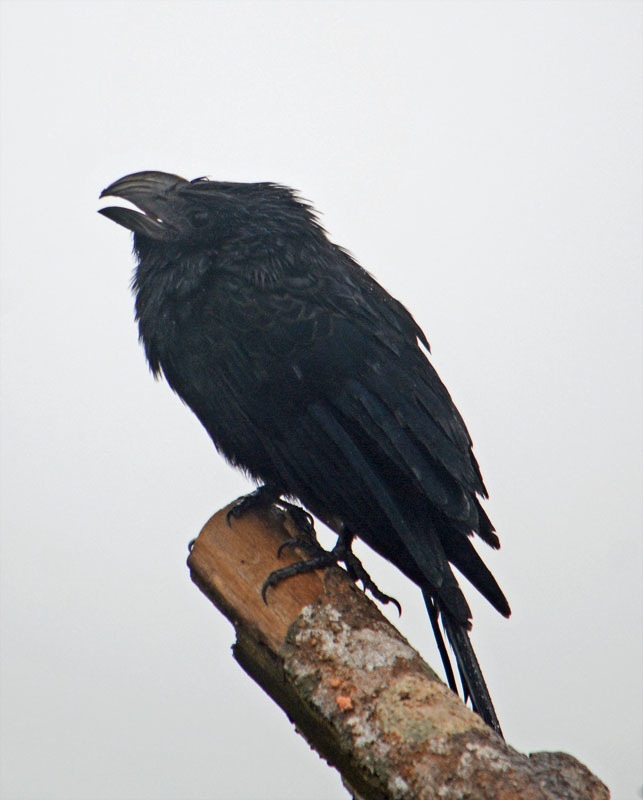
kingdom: Animalia
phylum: Chordata
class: Aves
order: Cuculiformes
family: Cuculidae
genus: Crotophaga
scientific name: Crotophaga sulcirostris
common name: Groove-billed ani
